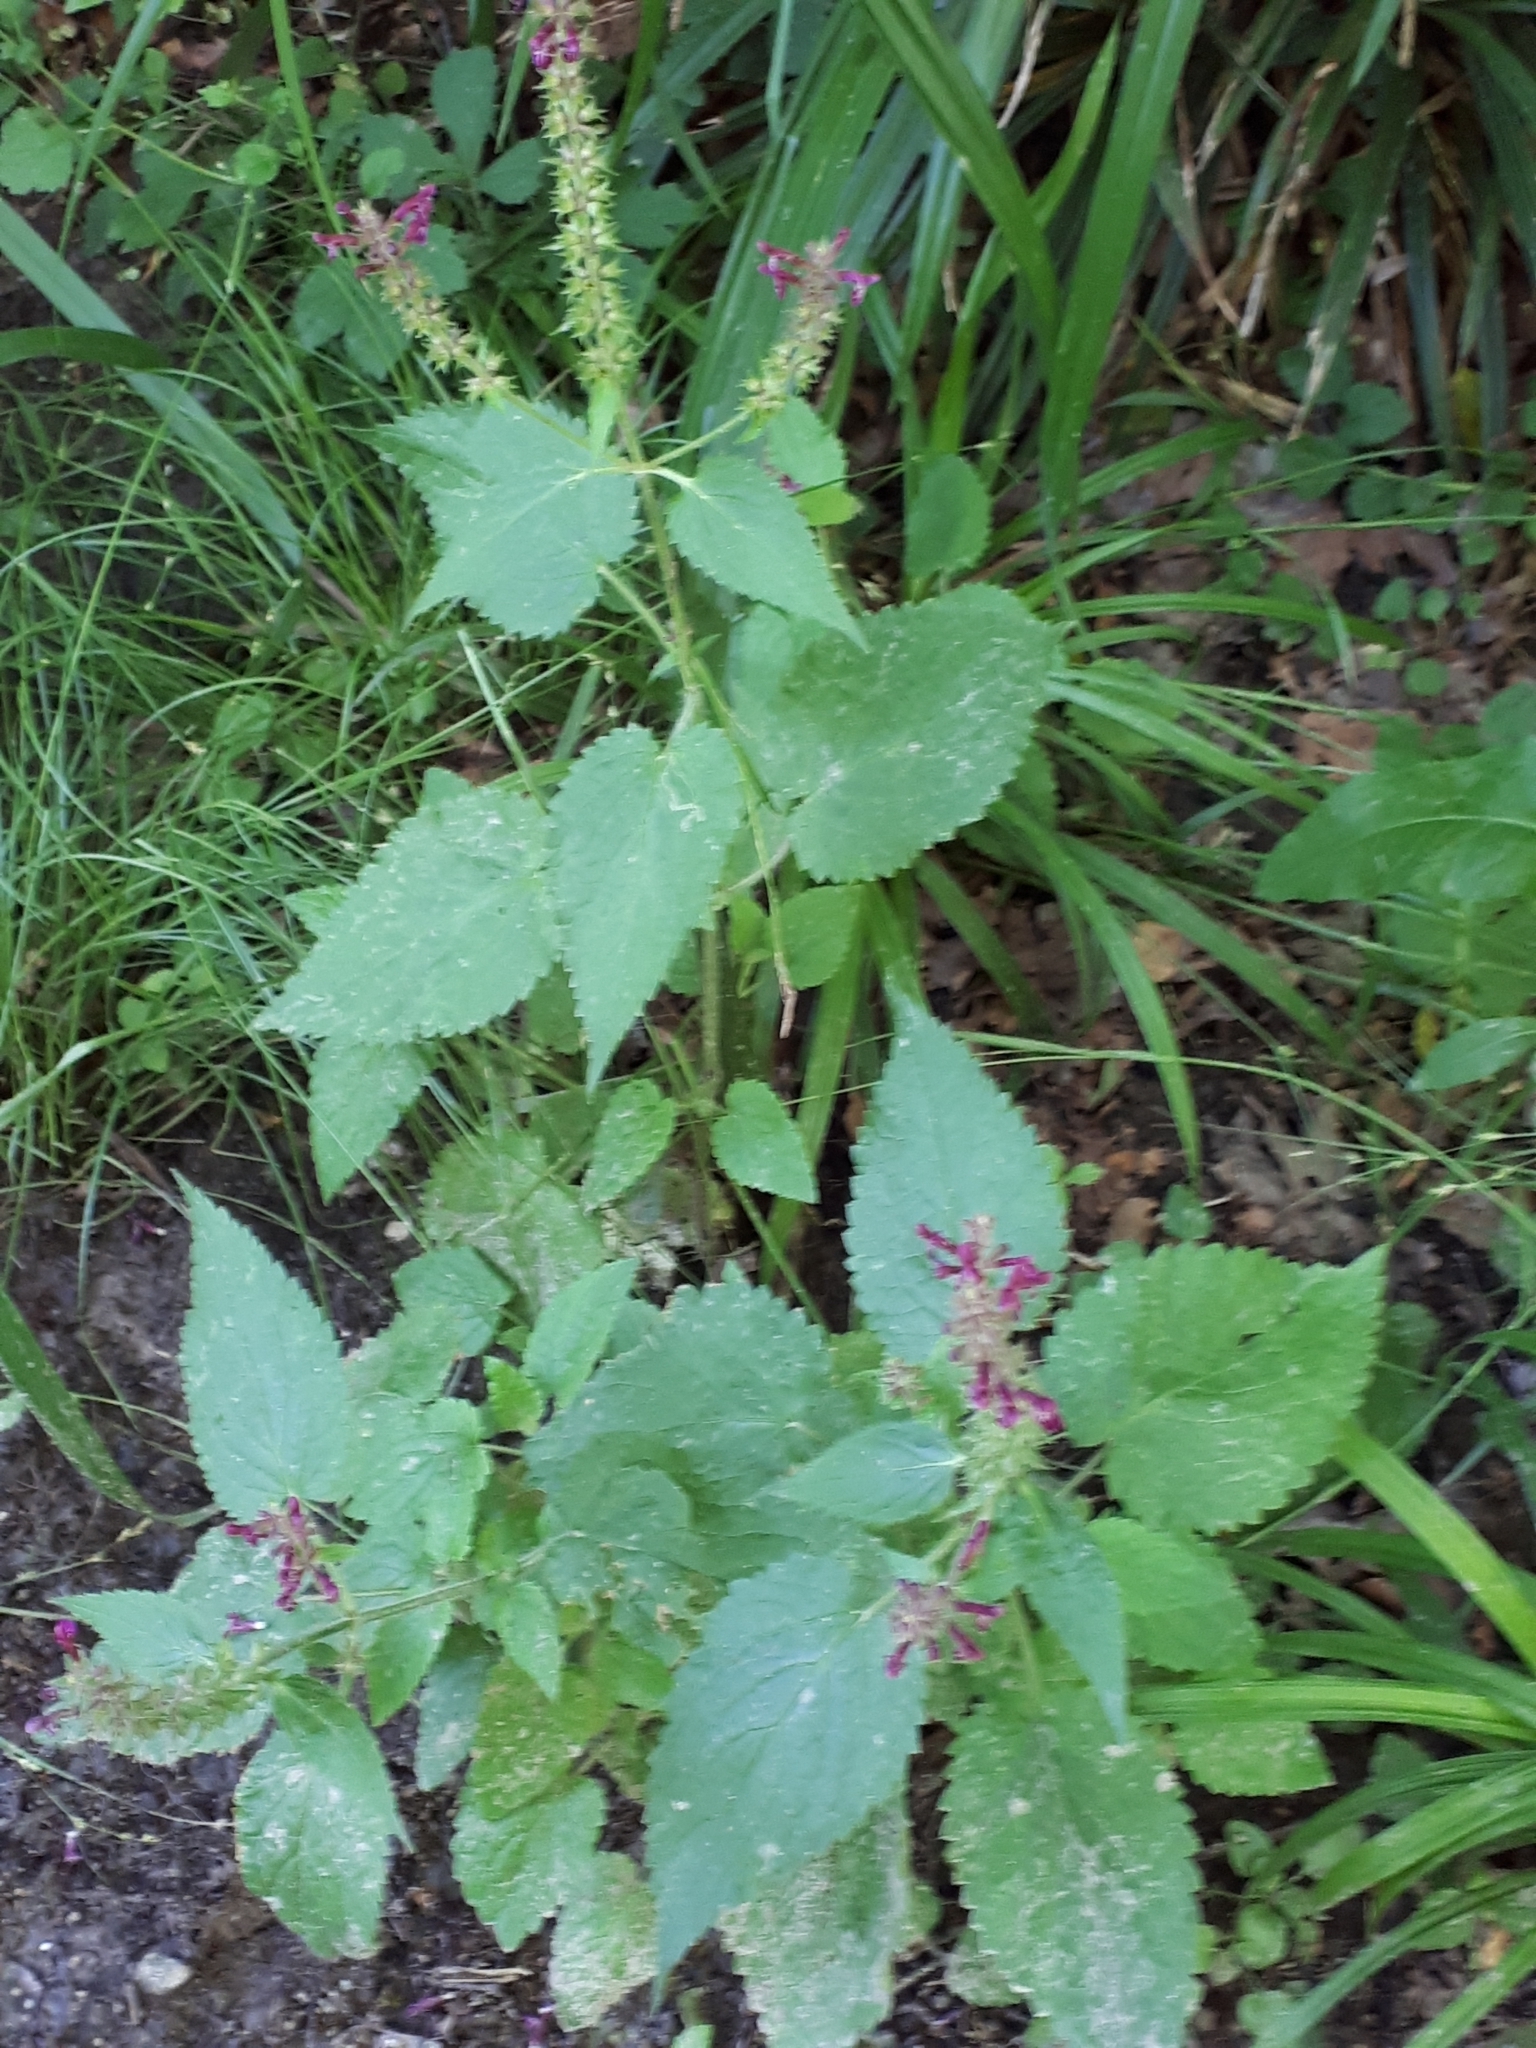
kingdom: Plantae
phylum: Tracheophyta
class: Magnoliopsida
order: Lamiales
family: Lamiaceae
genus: Stachys
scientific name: Stachys sylvatica
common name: Hedge woundwort
